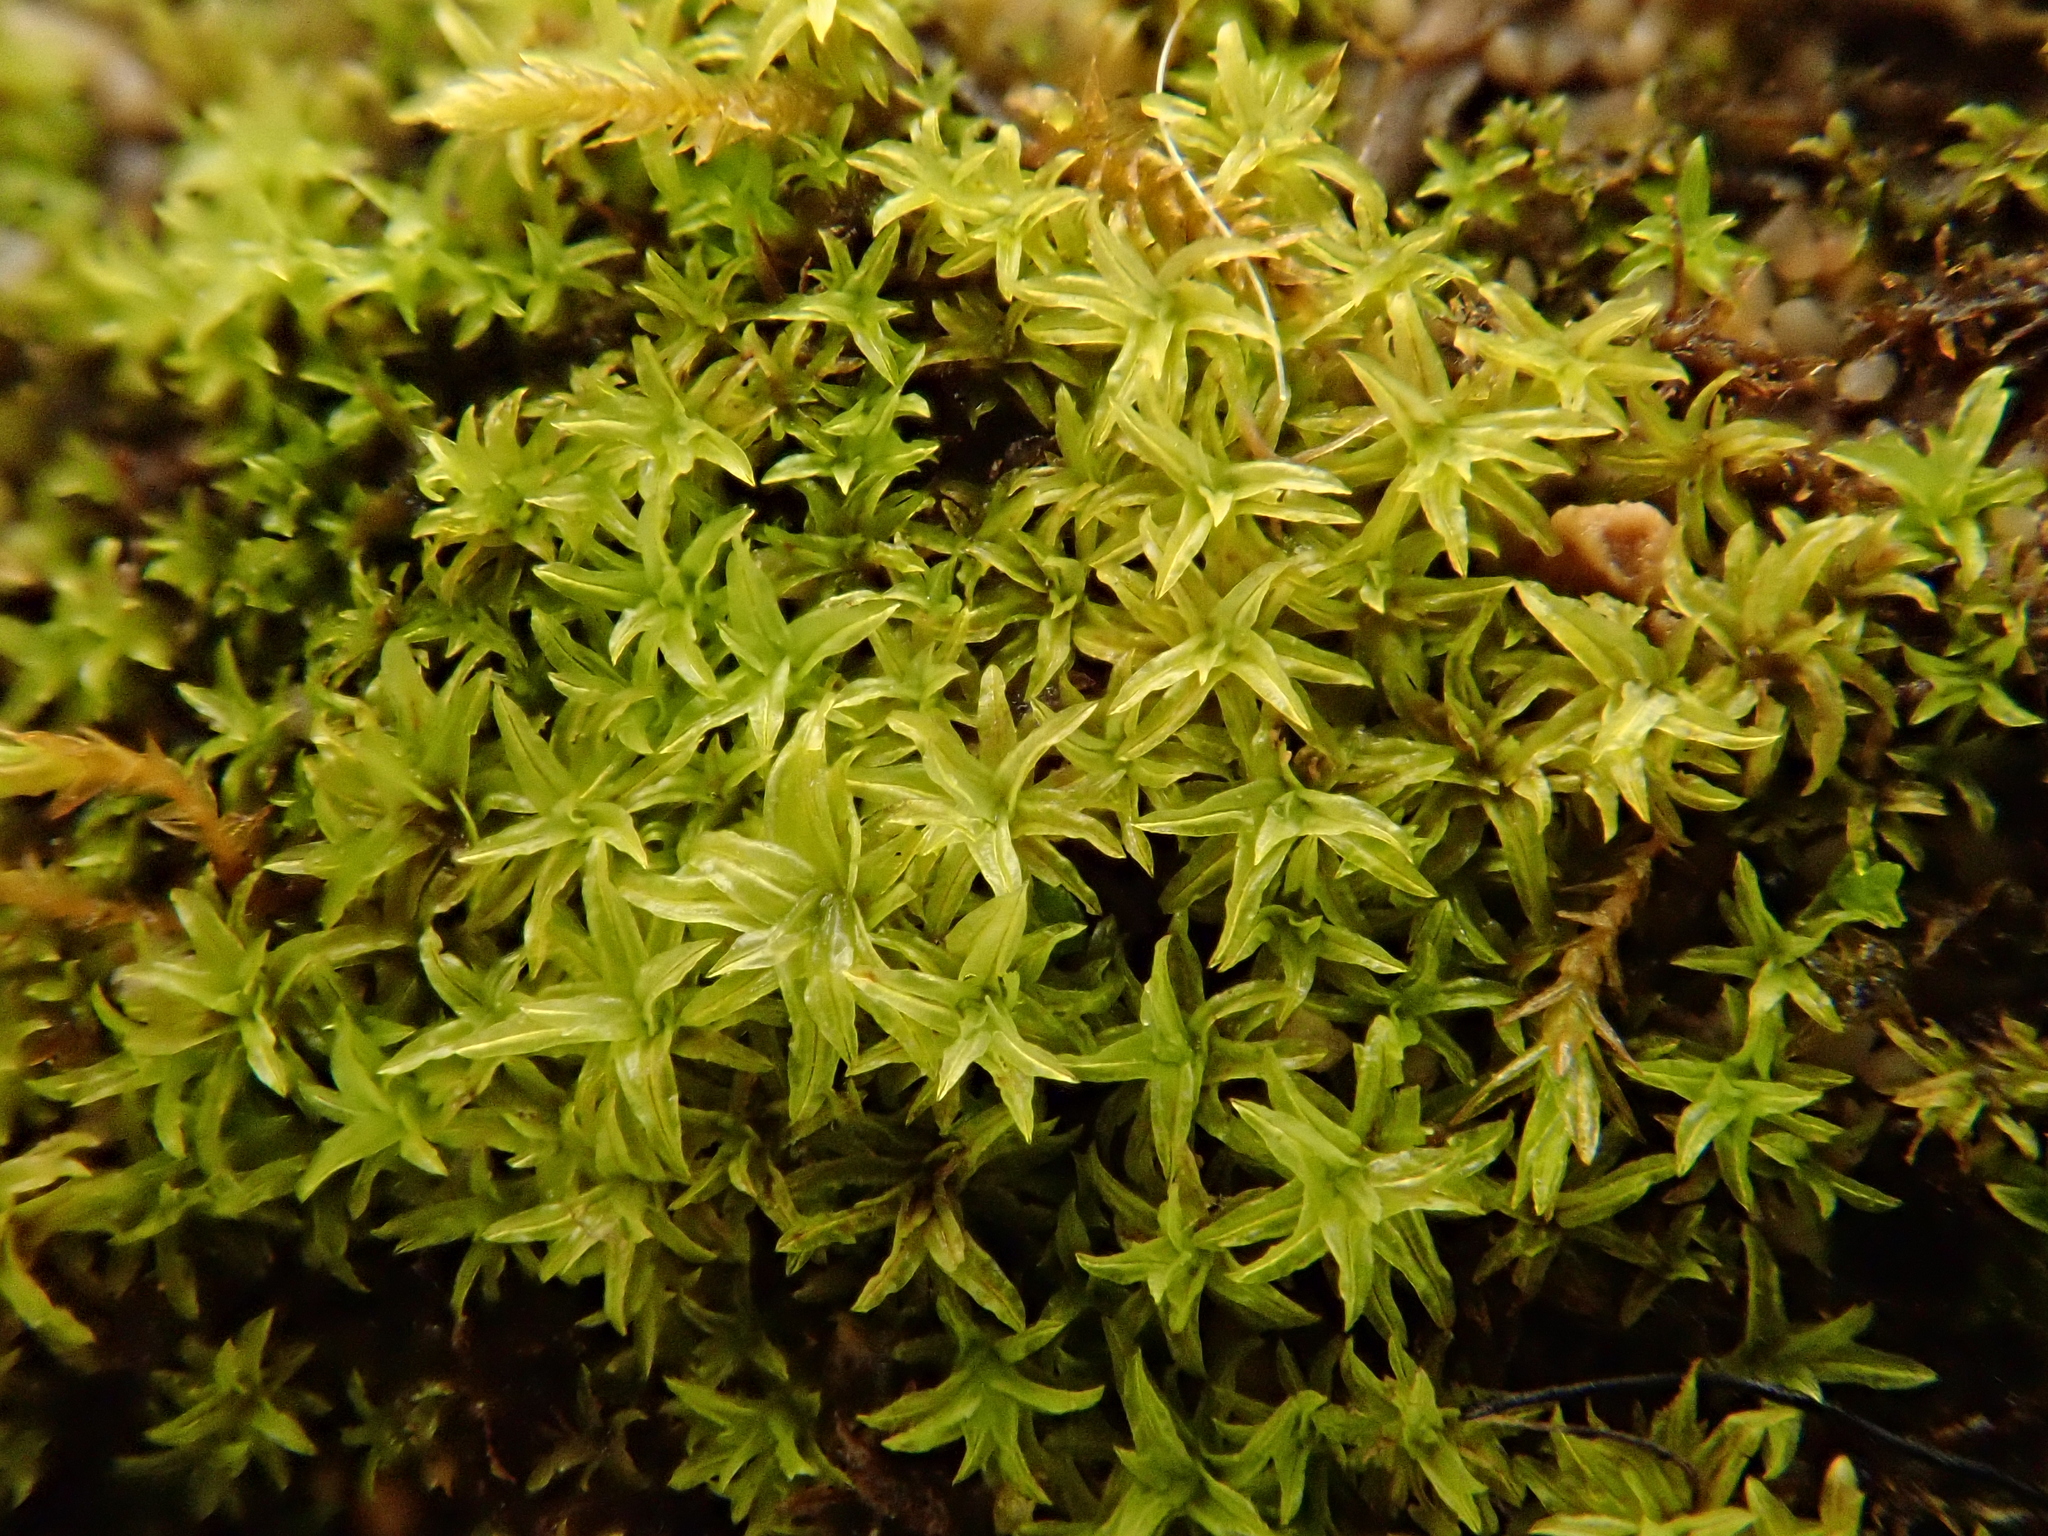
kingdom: Plantae
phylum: Bryophyta
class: Bryopsida
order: Orthotrichales
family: Orthotrichaceae
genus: Zygodon
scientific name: Zygodon rupestris
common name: Park yoke moss
